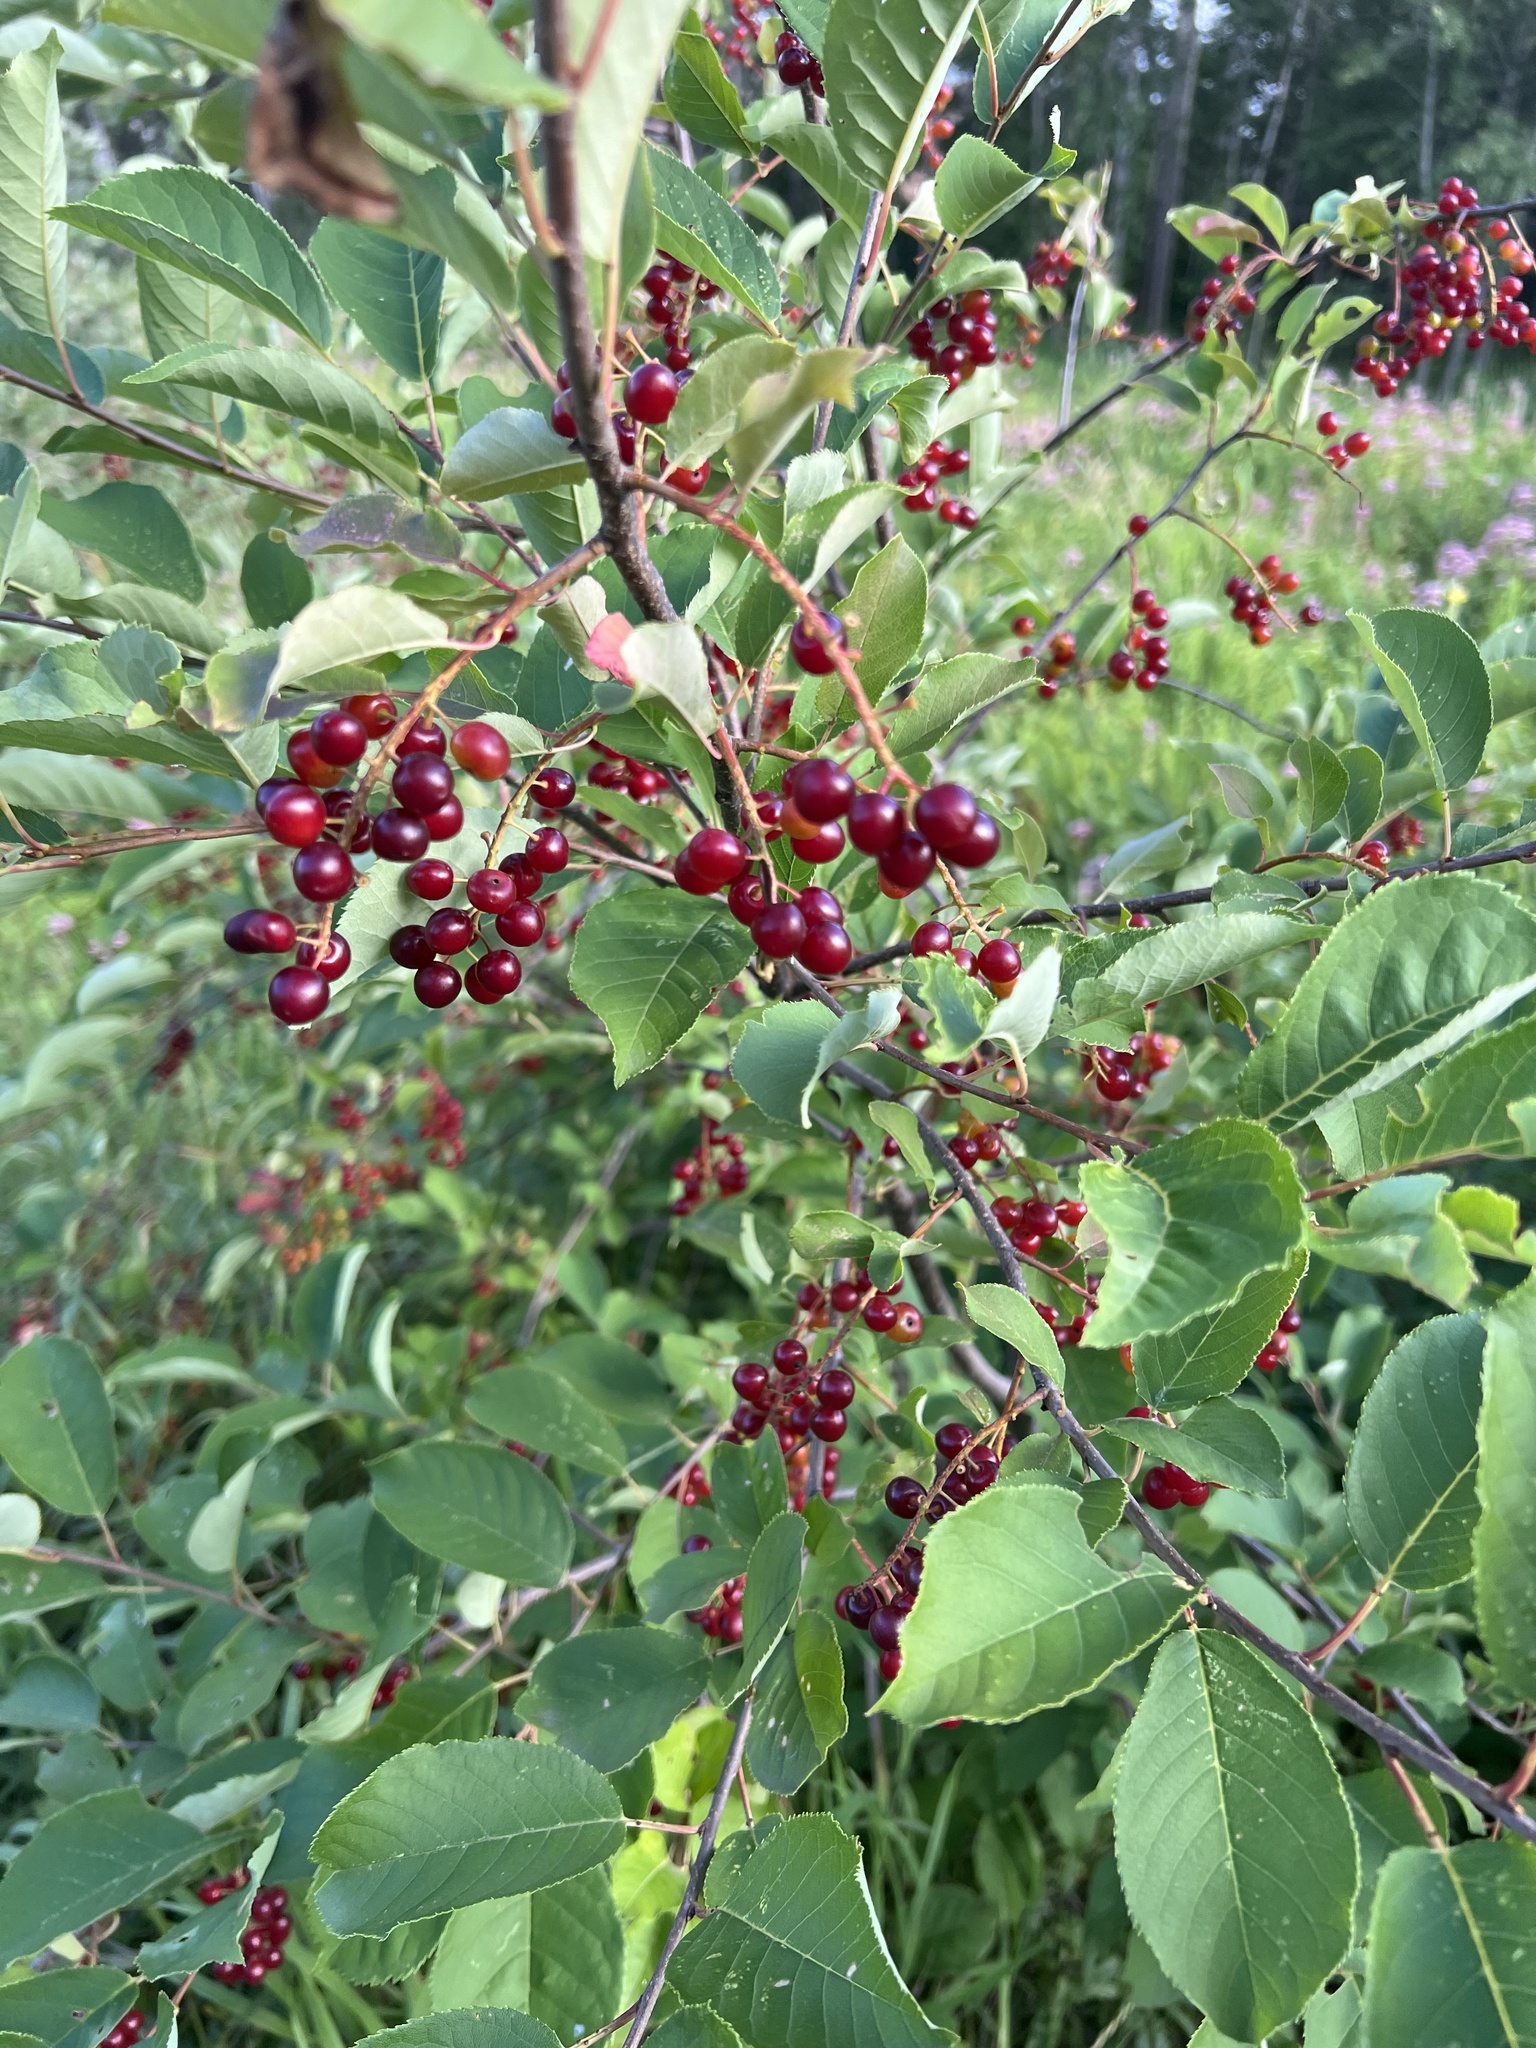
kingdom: Plantae
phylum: Tracheophyta
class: Magnoliopsida
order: Rosales
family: Rosaceae
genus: Prunus
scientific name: Prunus virginiana
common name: Chokecherry
